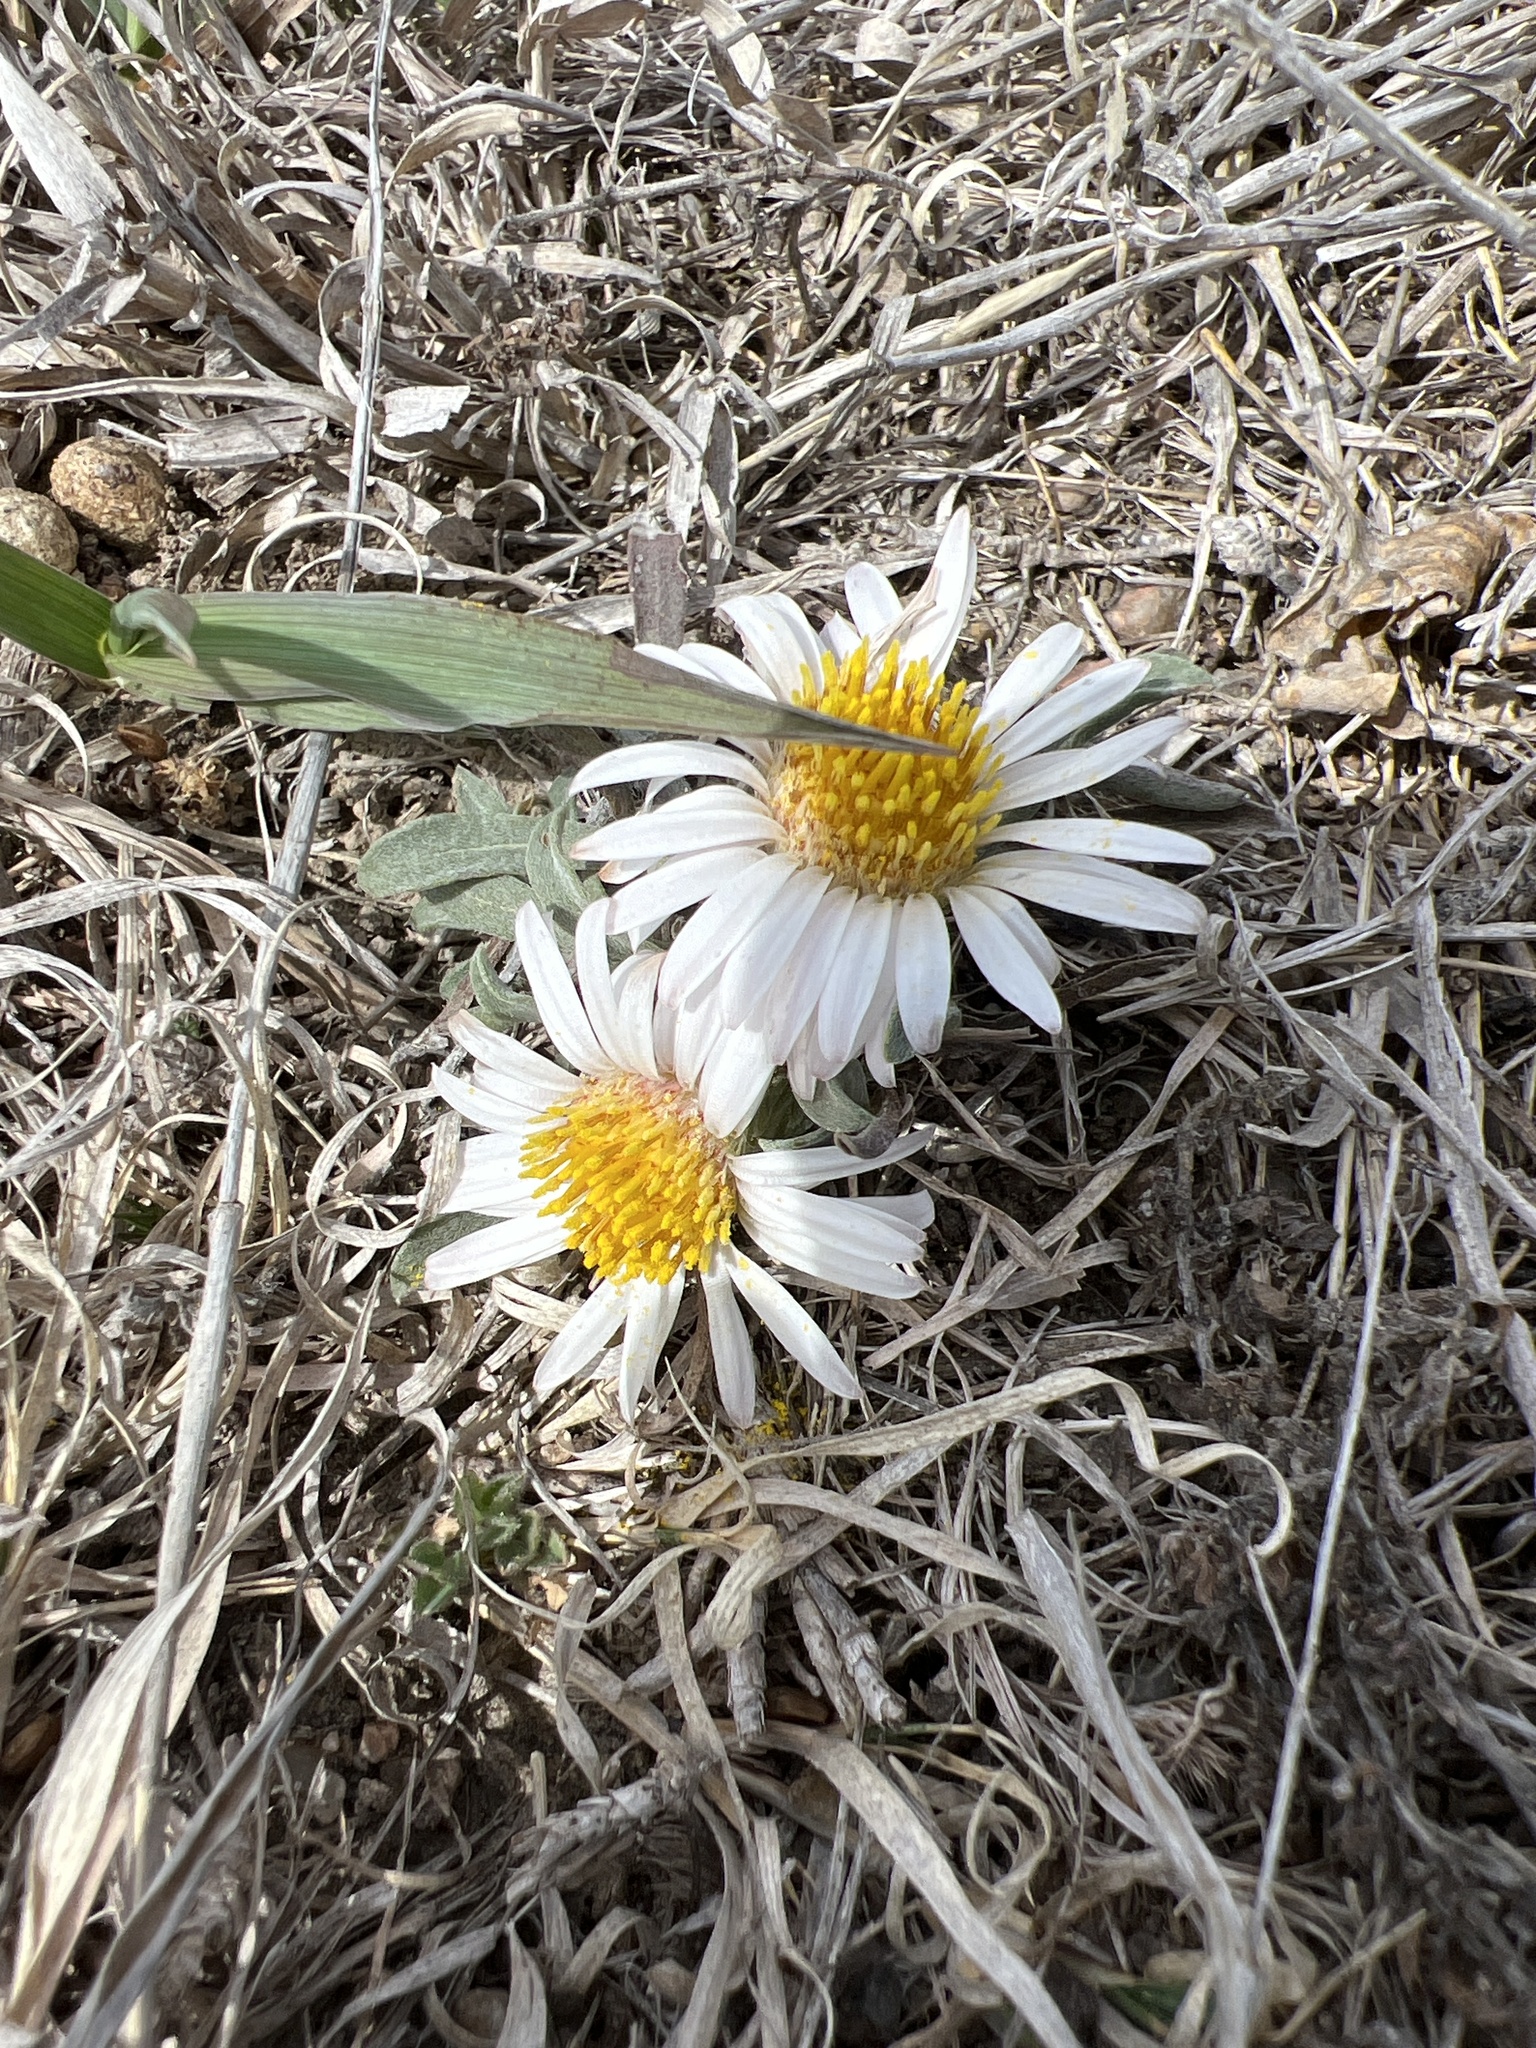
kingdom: Plantae
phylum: Tracheophyta
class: Magnoliopsida
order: Asterales
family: Asteraceae
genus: Townsendia
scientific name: Townsendia exscapa
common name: Dwarf townsendia
